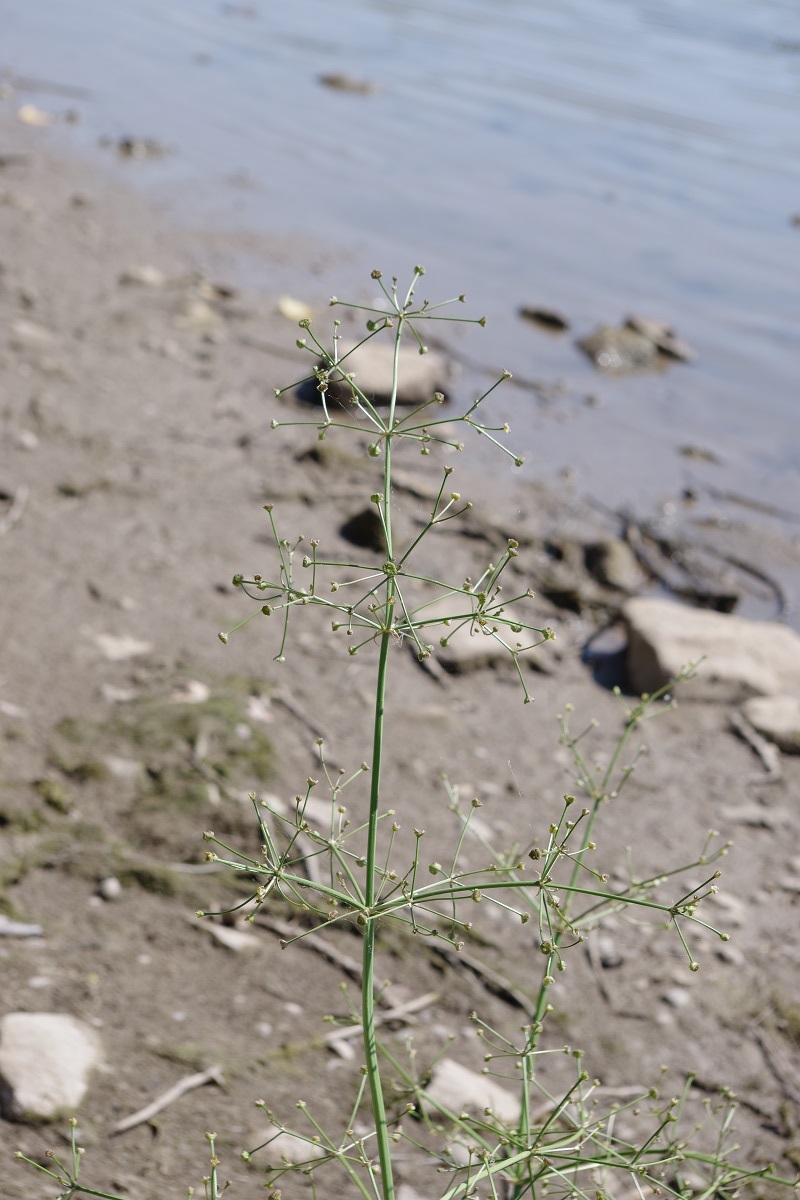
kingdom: Plantae
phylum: Tracheophyta
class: Liliopsida
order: Alismatales
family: Alismataceae
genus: Alisma
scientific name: Alisma plantago-aquatica
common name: Water-plantain
